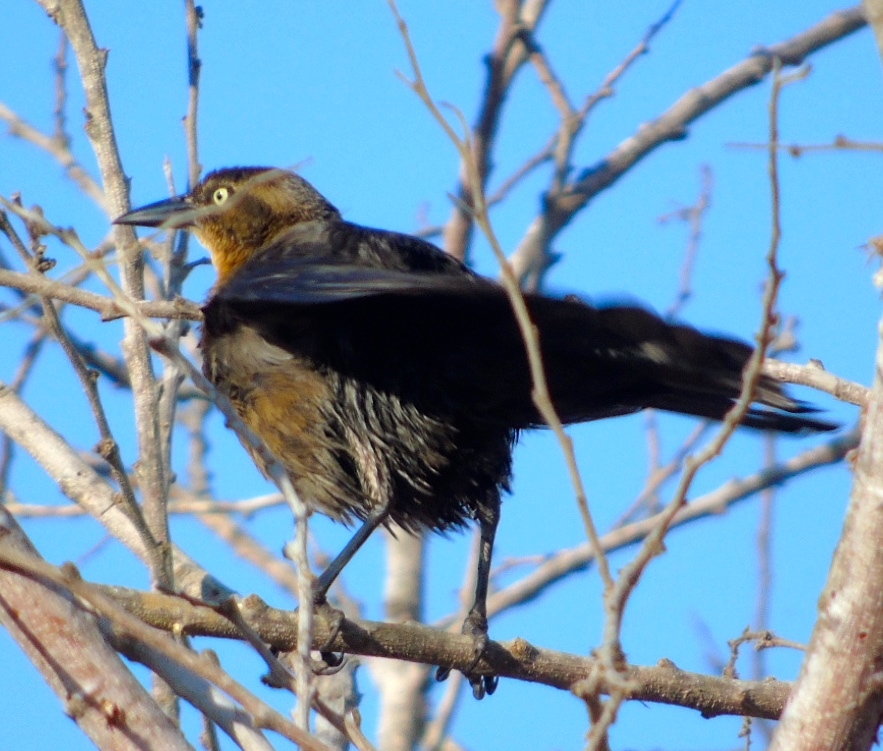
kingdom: Animalia
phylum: Chordata
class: Aves
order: Passeriformes
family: Icteridae
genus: Quiscalus
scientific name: Quiscalus mexicanus
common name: Great-tailed grackle
